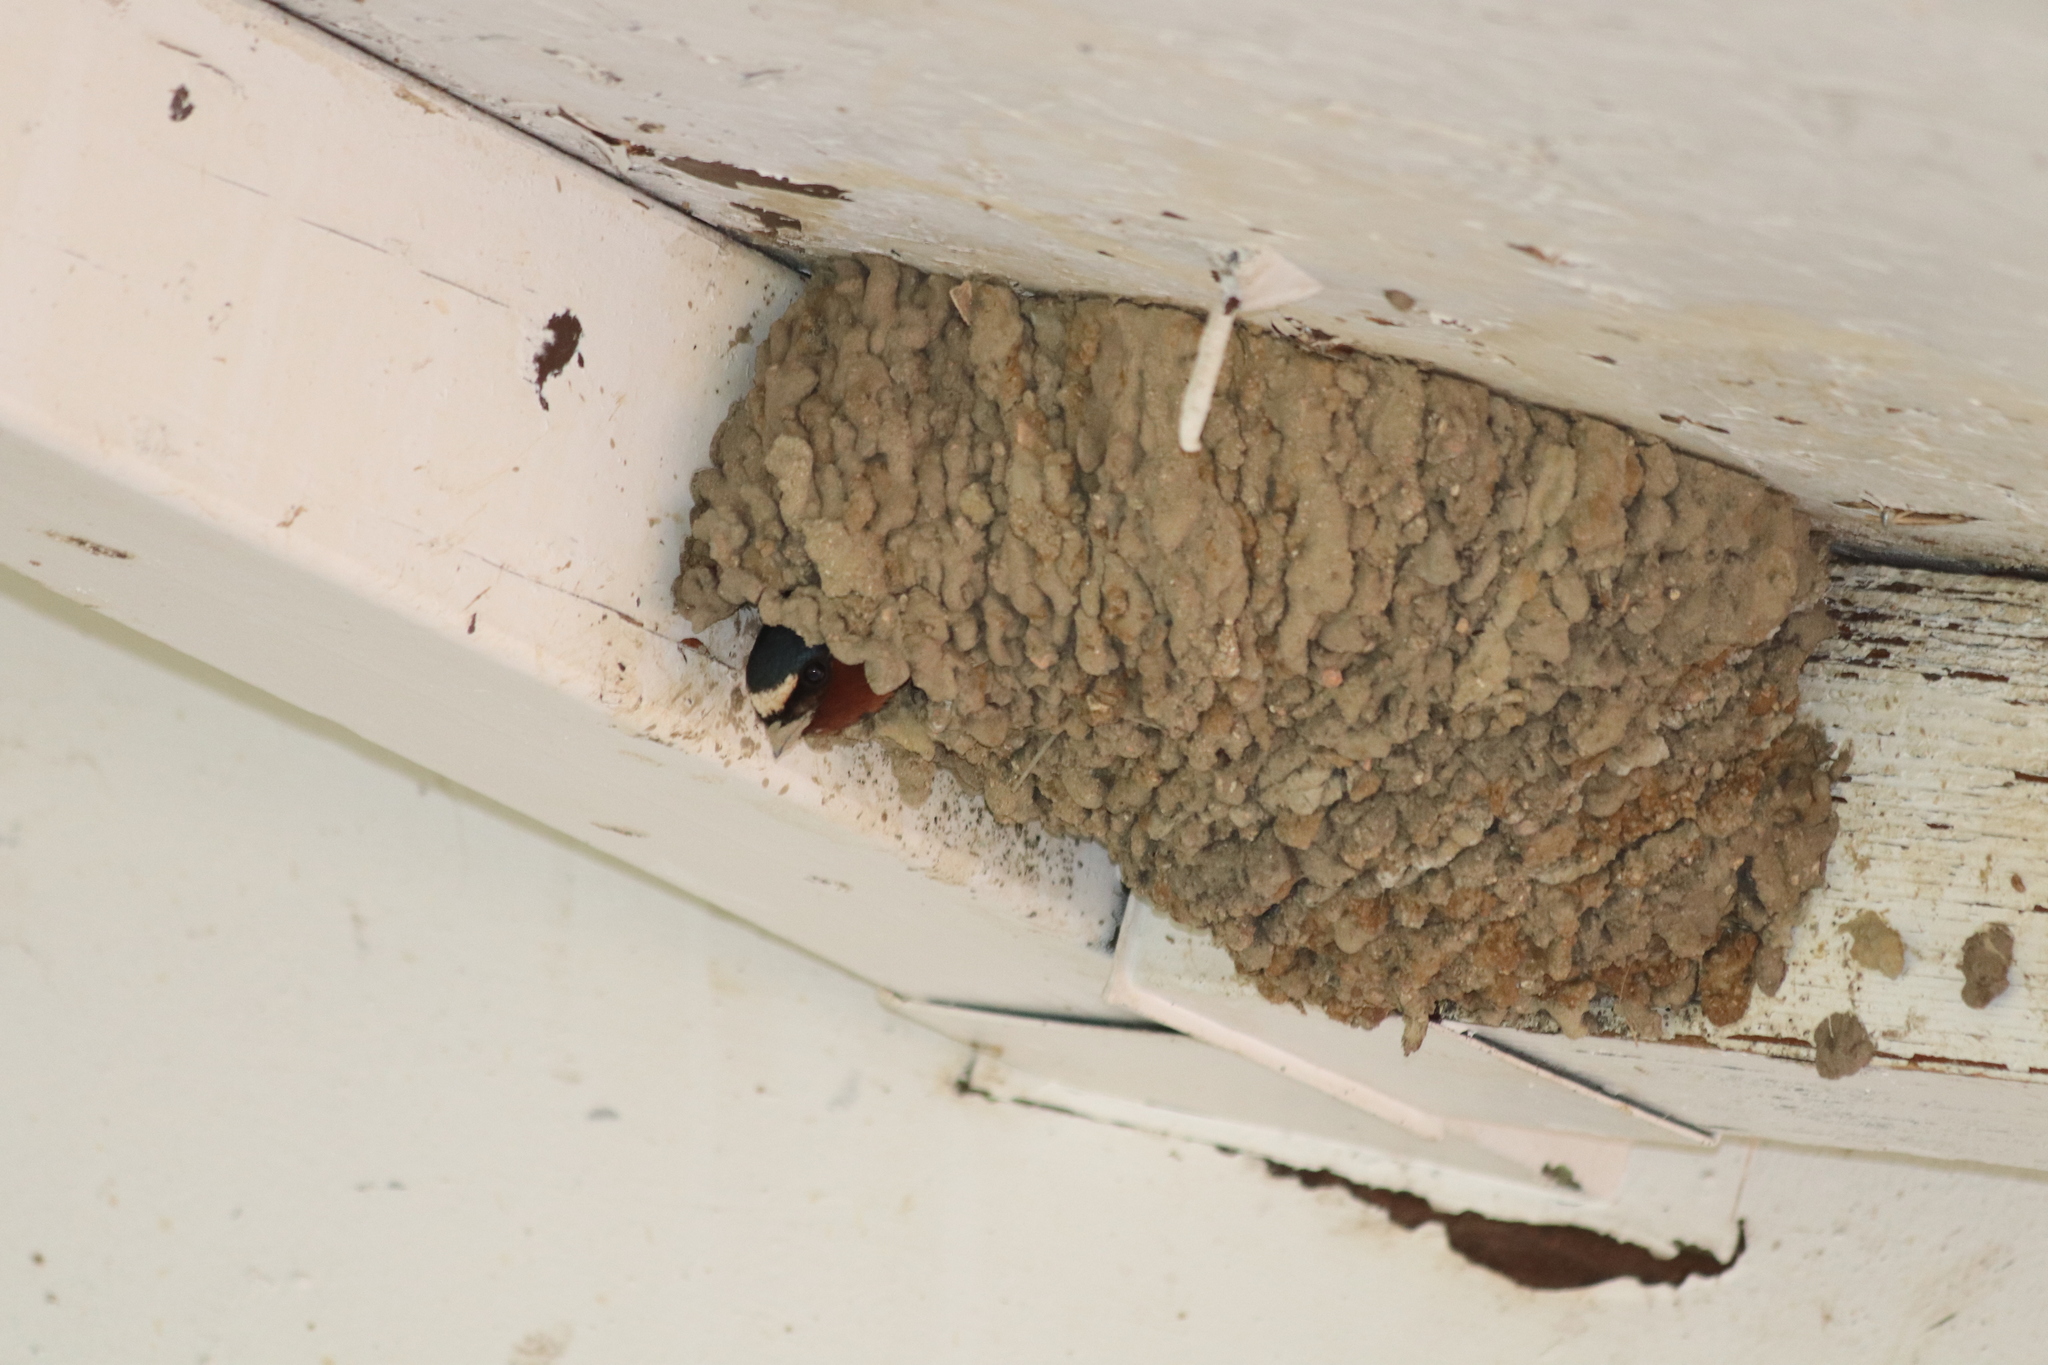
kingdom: Animalia
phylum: Chordata
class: Aves
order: Passeriformes
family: Hirundinidae
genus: Petrochelidon
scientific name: Petrochelidon pyrrhonota
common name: American cliff swallow
